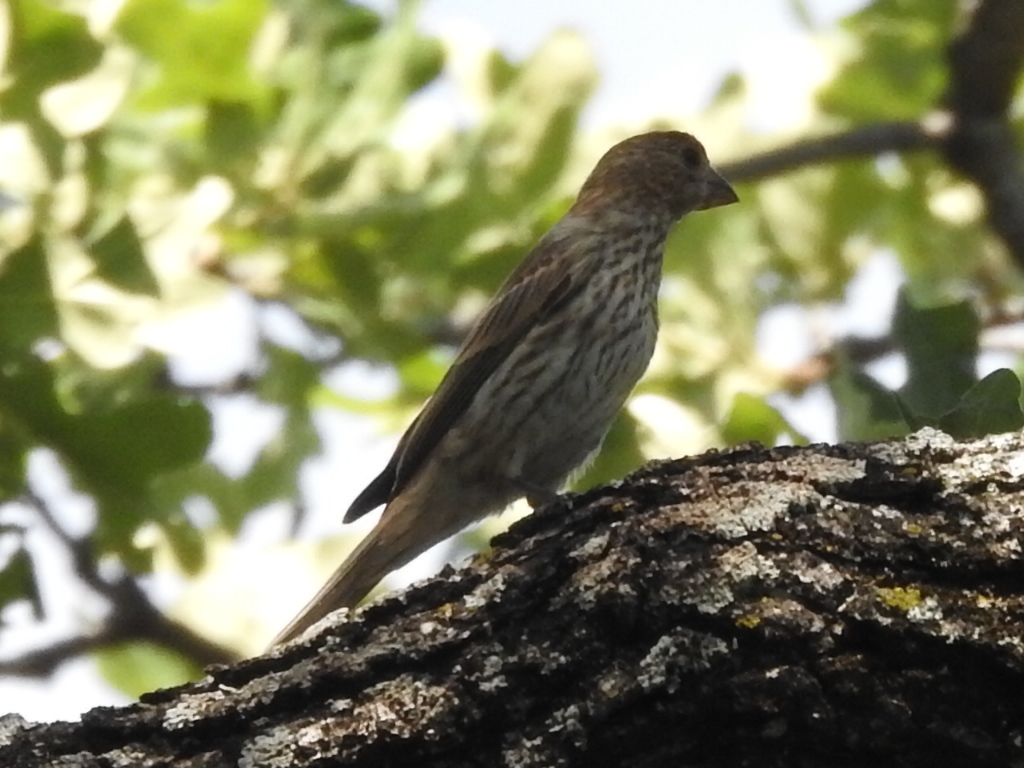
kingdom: Animalia
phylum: Chordata
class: Aves
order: Passeriformes
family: Fringillidae
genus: Haemorhous
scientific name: Haemorhous mexicanus
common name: House finch
